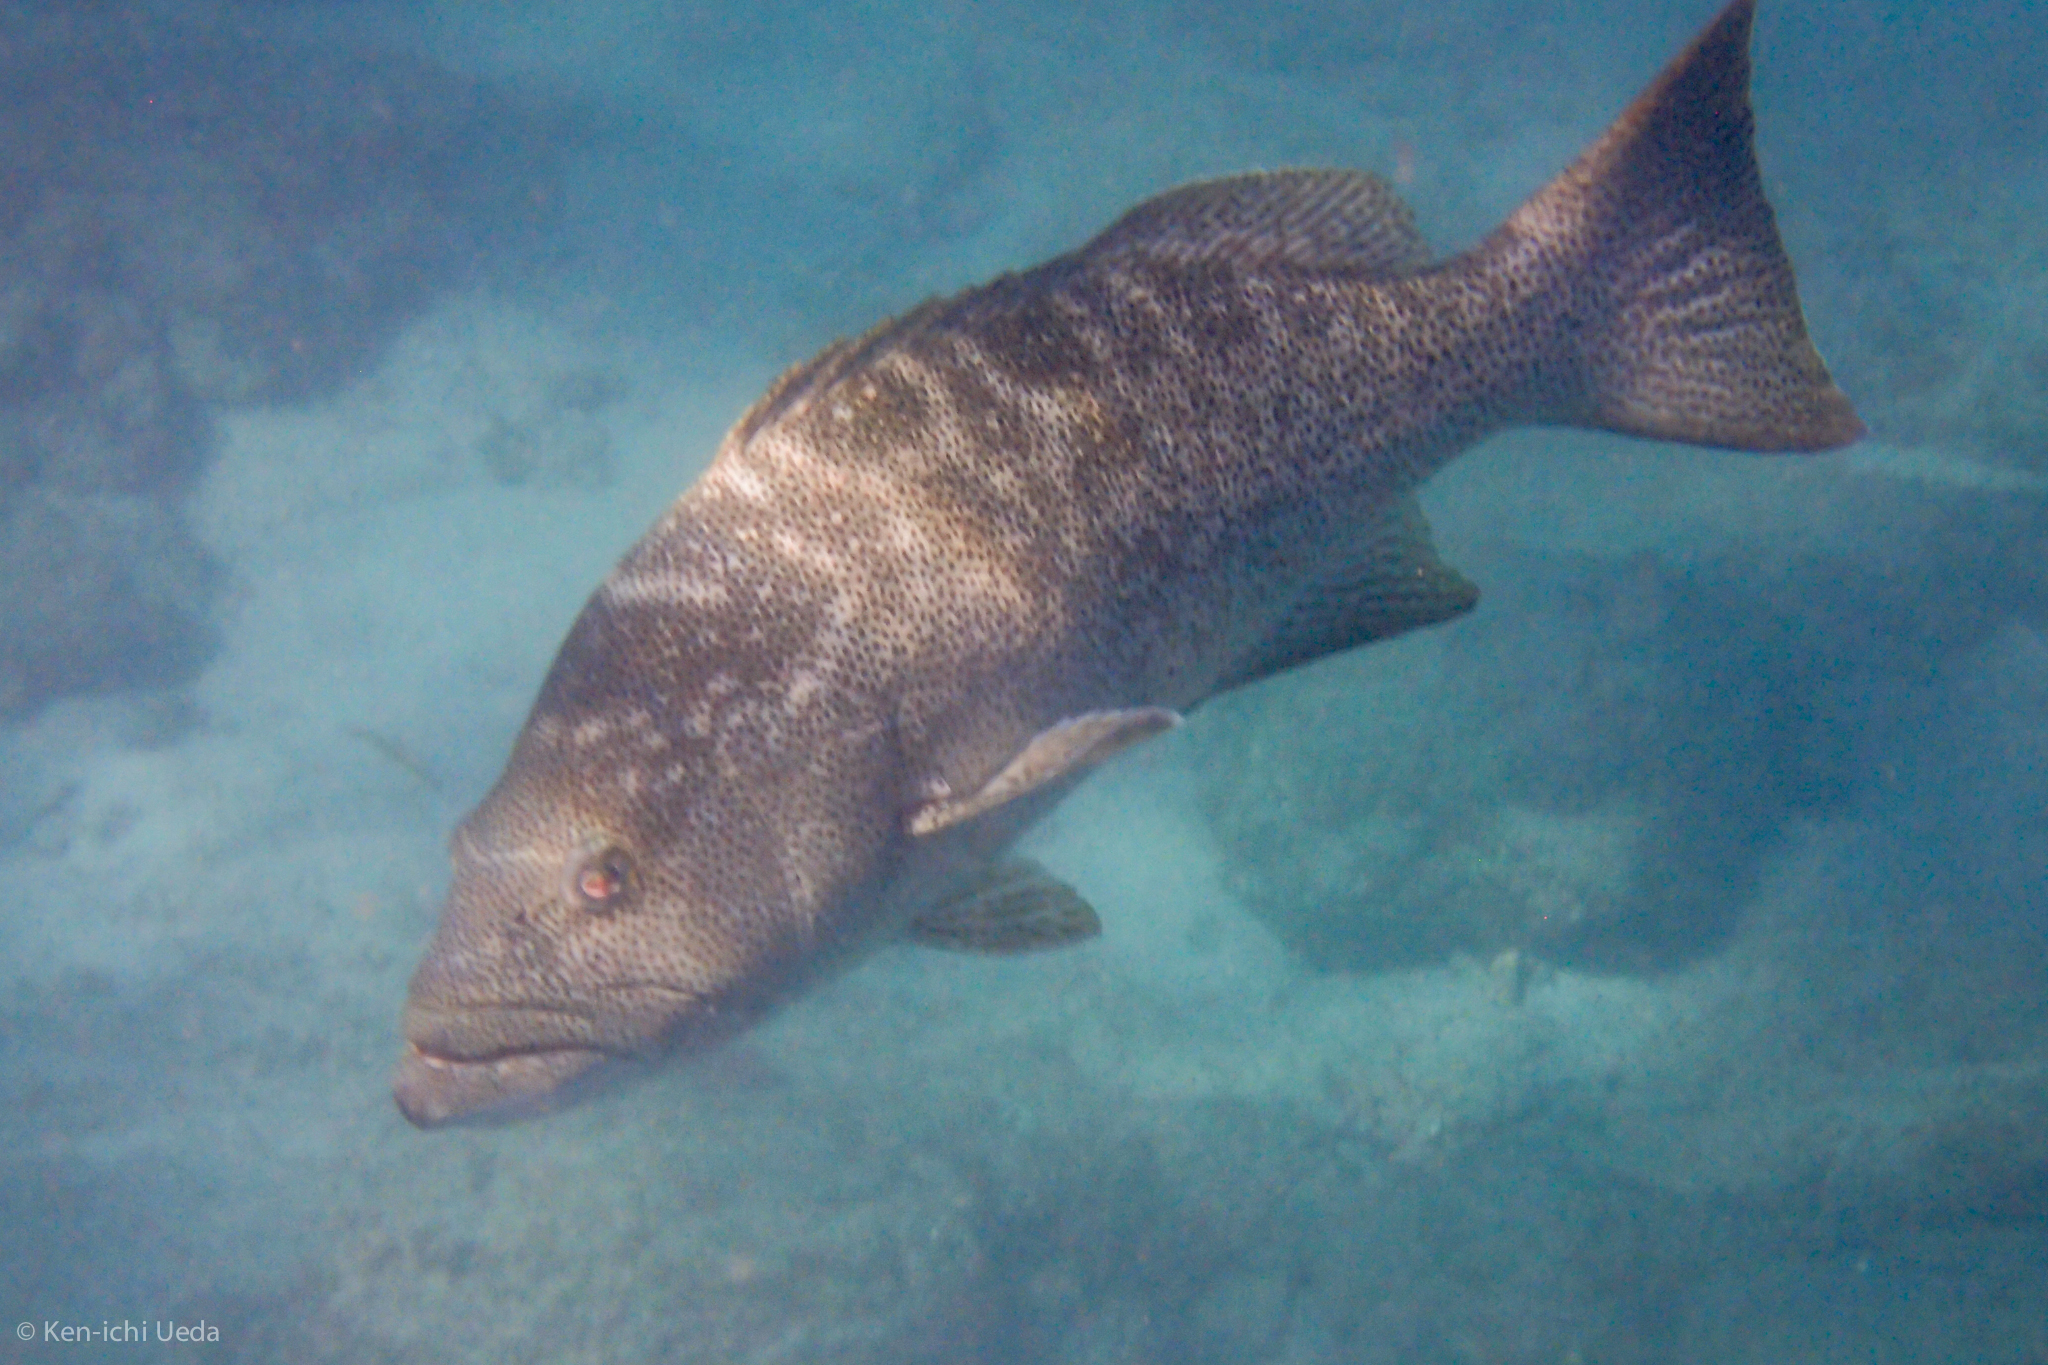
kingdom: Animalia
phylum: Chordata
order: Perciformes
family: Serranidae
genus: Mycteroperca
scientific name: Mycteroperca rosacea
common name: Leopard grouper
